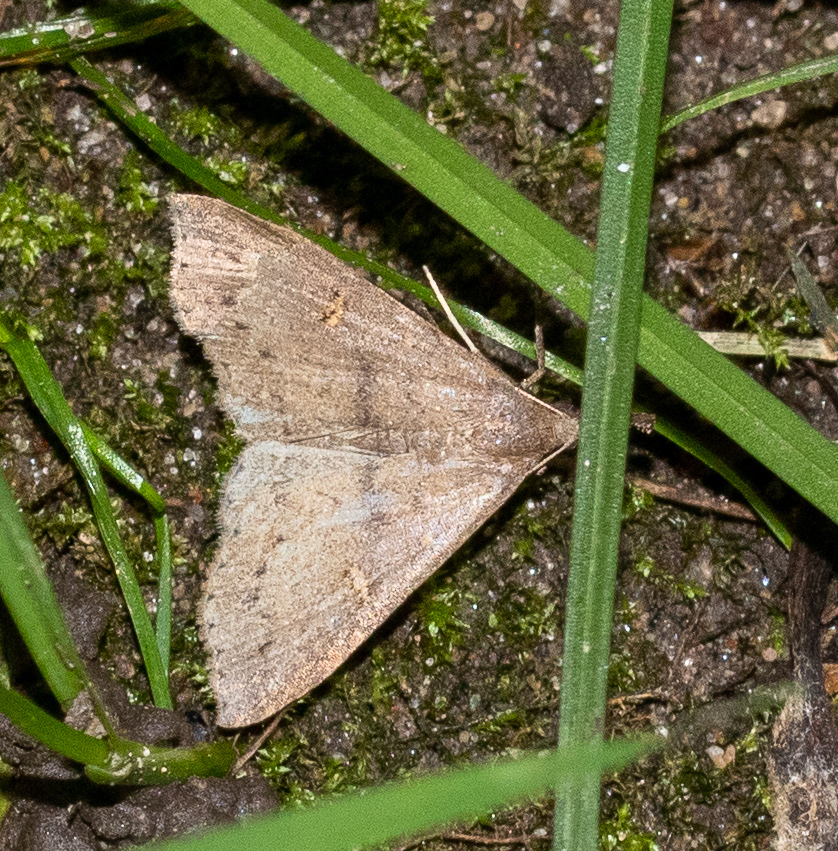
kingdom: Animalia
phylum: Arthropoda
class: Insecta
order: Lepidoptera
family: Erebidae
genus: Renia
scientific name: Renia adspergillus
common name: Speckled renia moth
